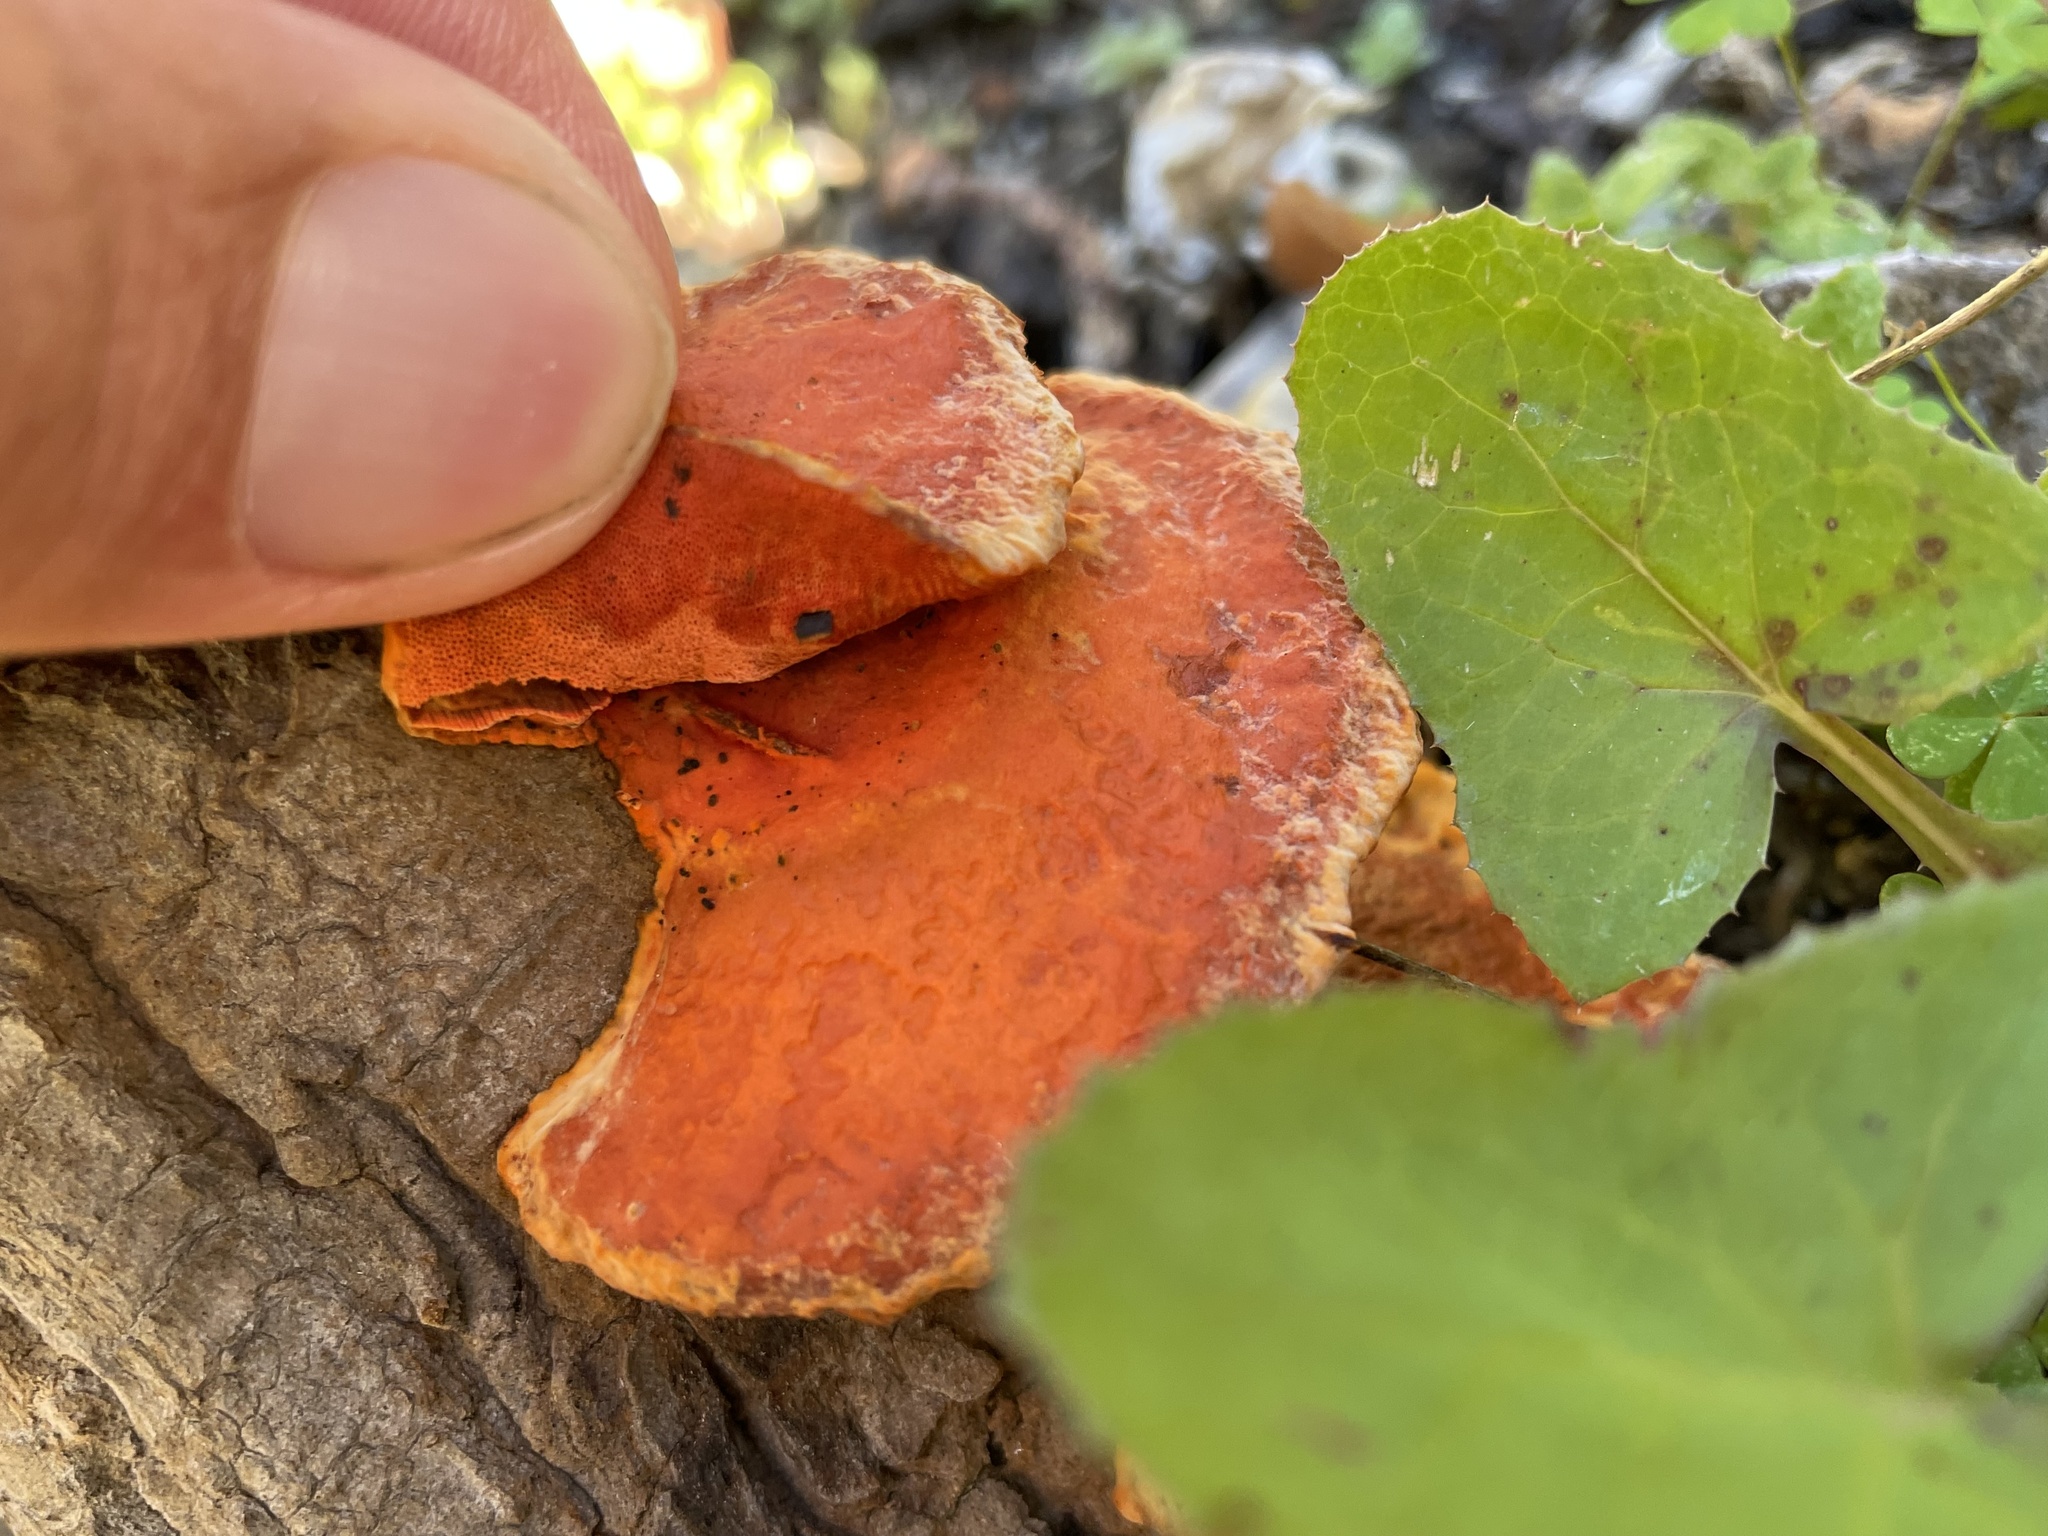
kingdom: Fungi
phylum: Basidiomycota
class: Agaricomycetes
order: Polyporales
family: Polyporaceae
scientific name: Polyporaceae
